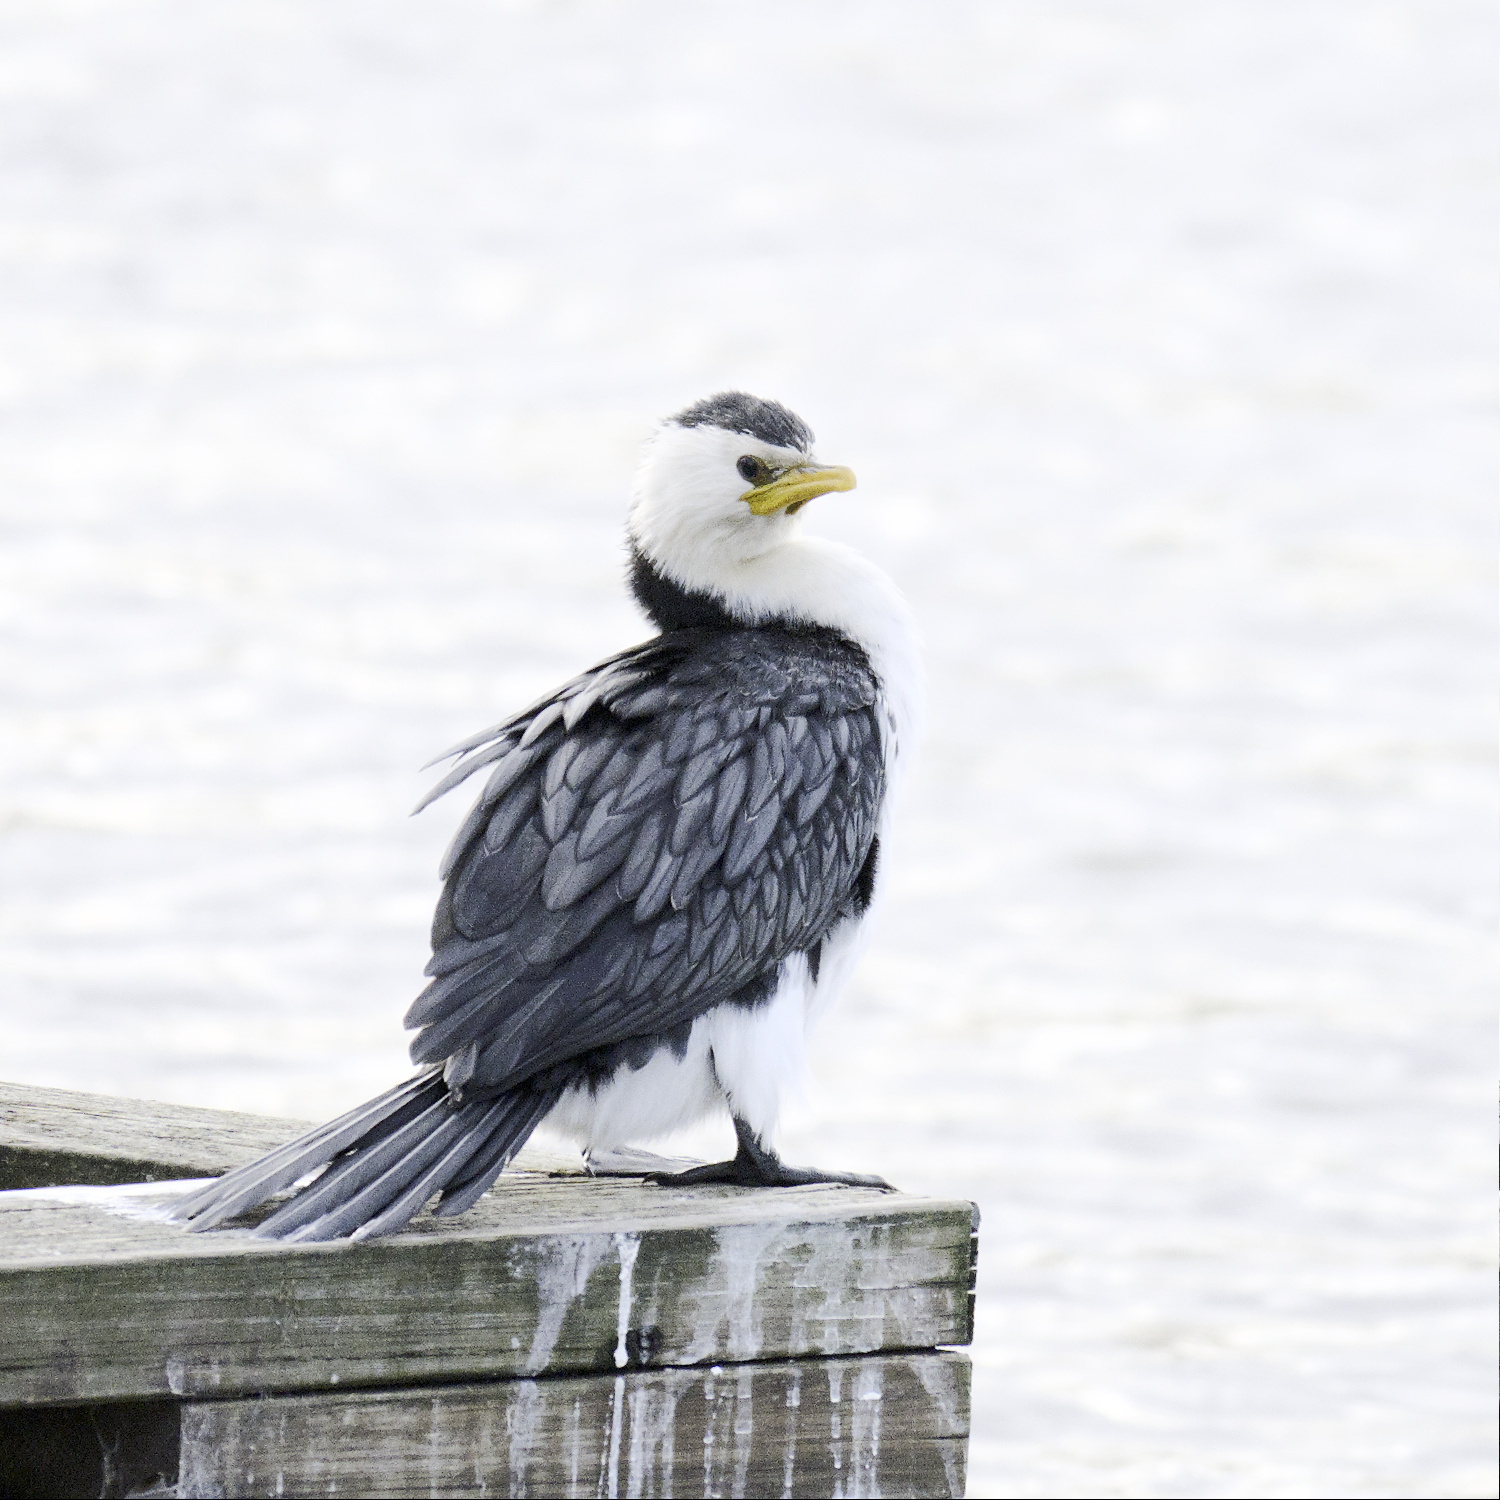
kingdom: Animalia
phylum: Chordata
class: Aves
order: Suliformes
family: Phalacrocoracidae
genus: Microcarbo
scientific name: Microcarbo melanoleucos
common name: Little pied cormorant
